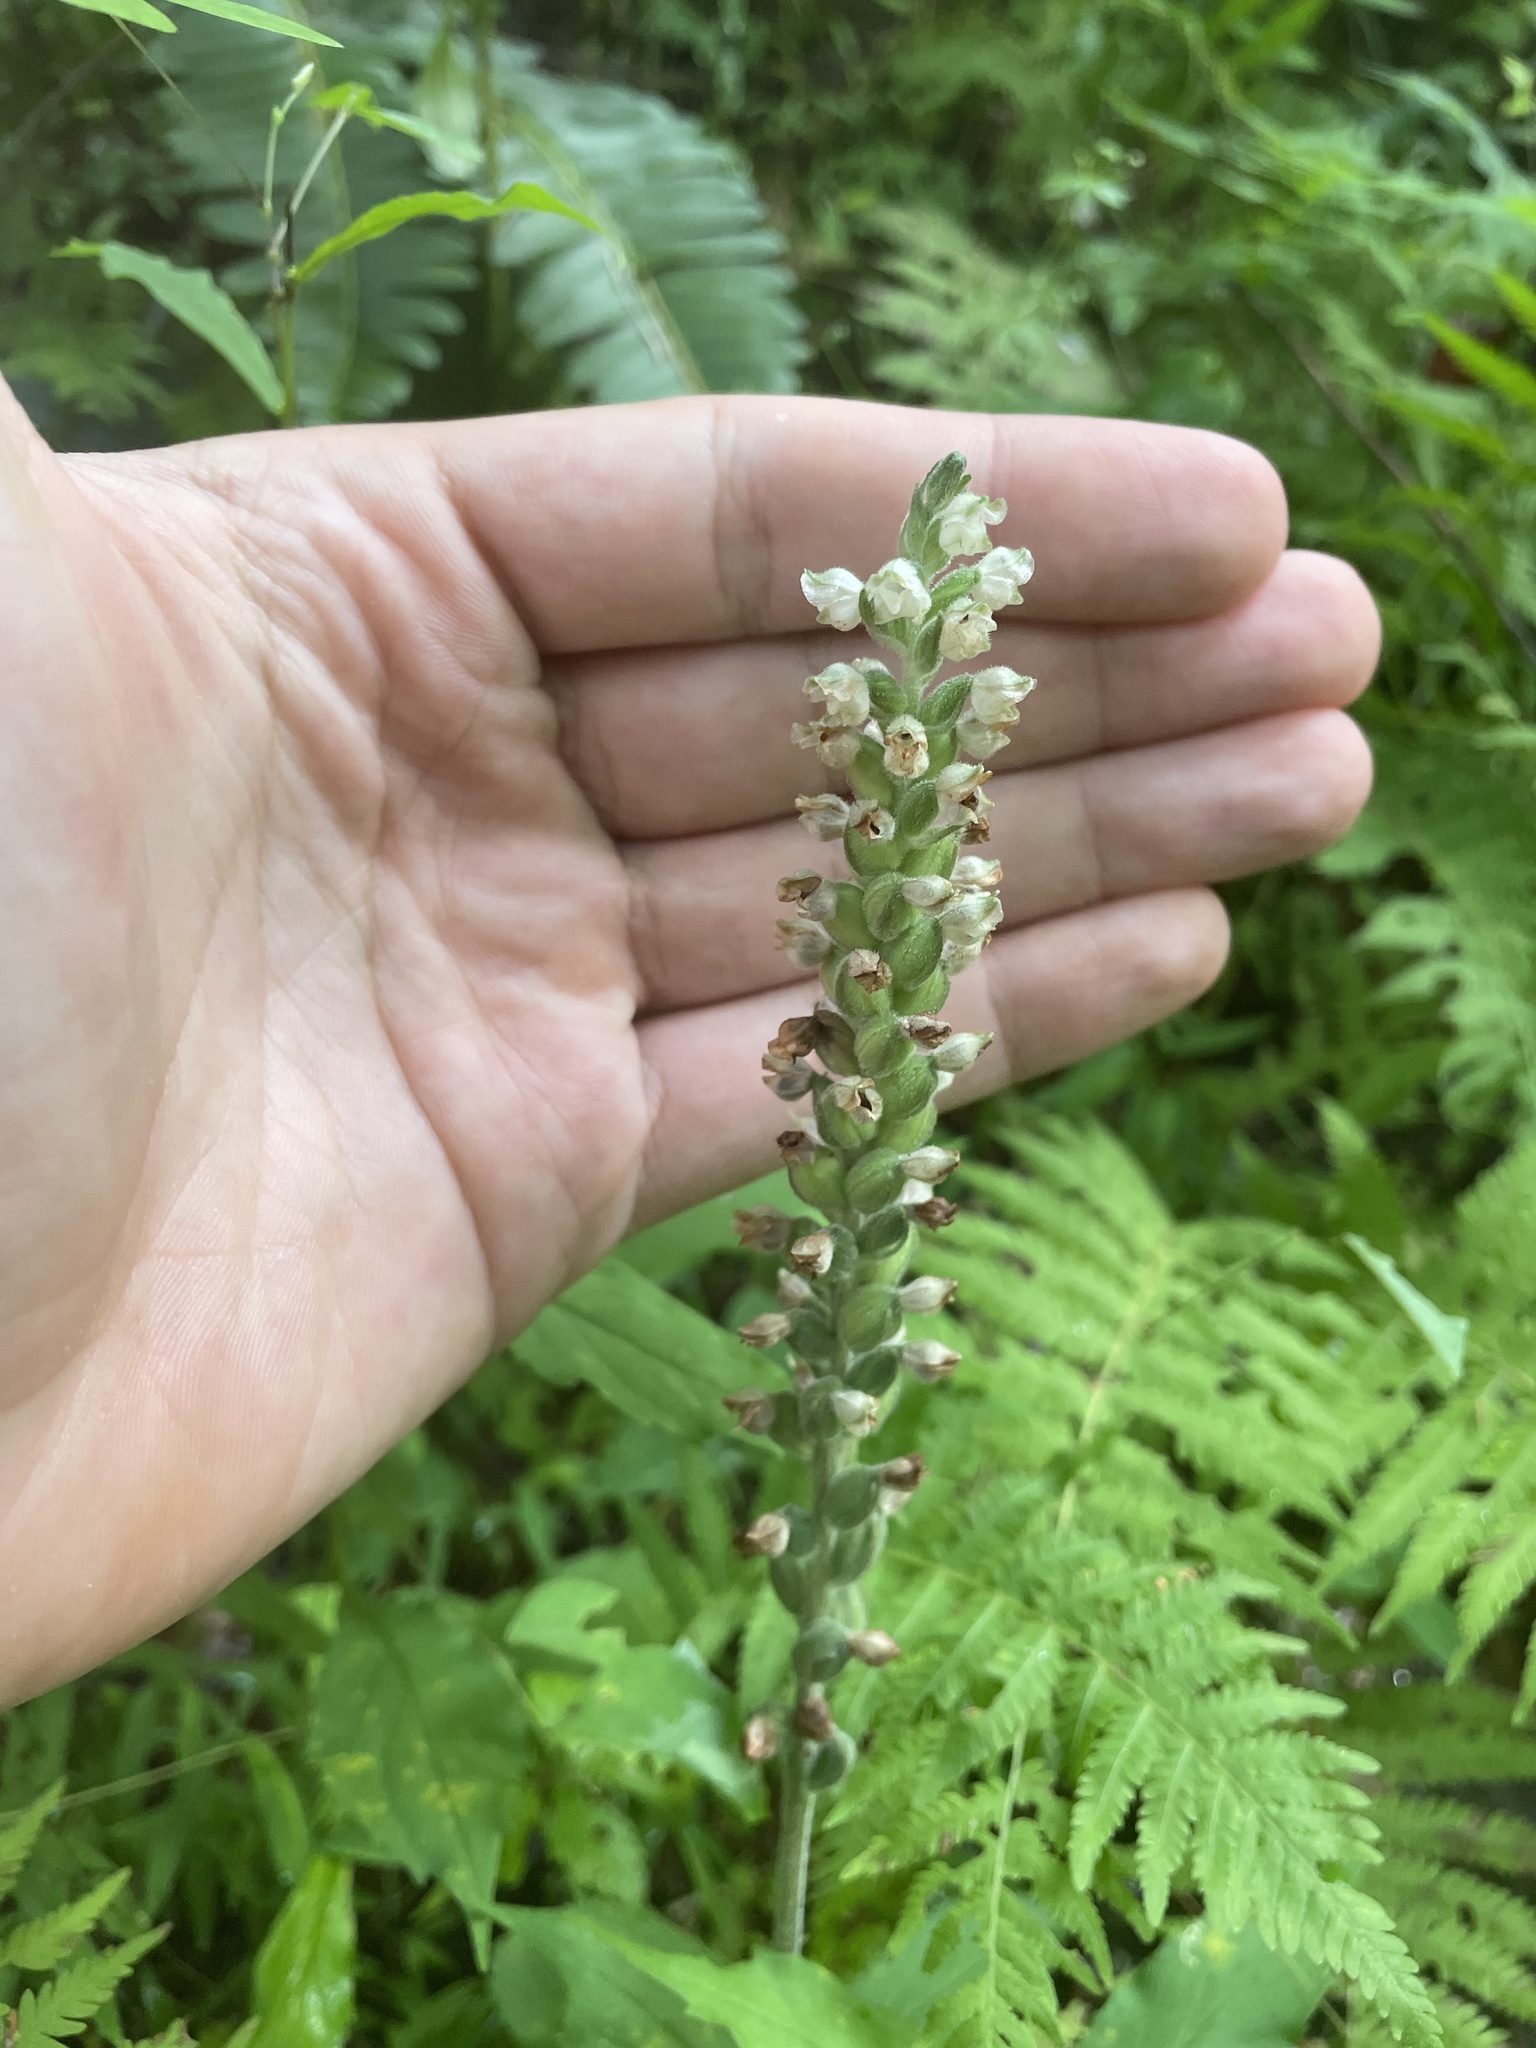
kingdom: Plantae
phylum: Tracheophyta
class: Liliopsida
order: Asparagales
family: Orchidaceae
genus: Goodyera
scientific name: Goodyera pubescens
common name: Downy rattlesnake-plantain
